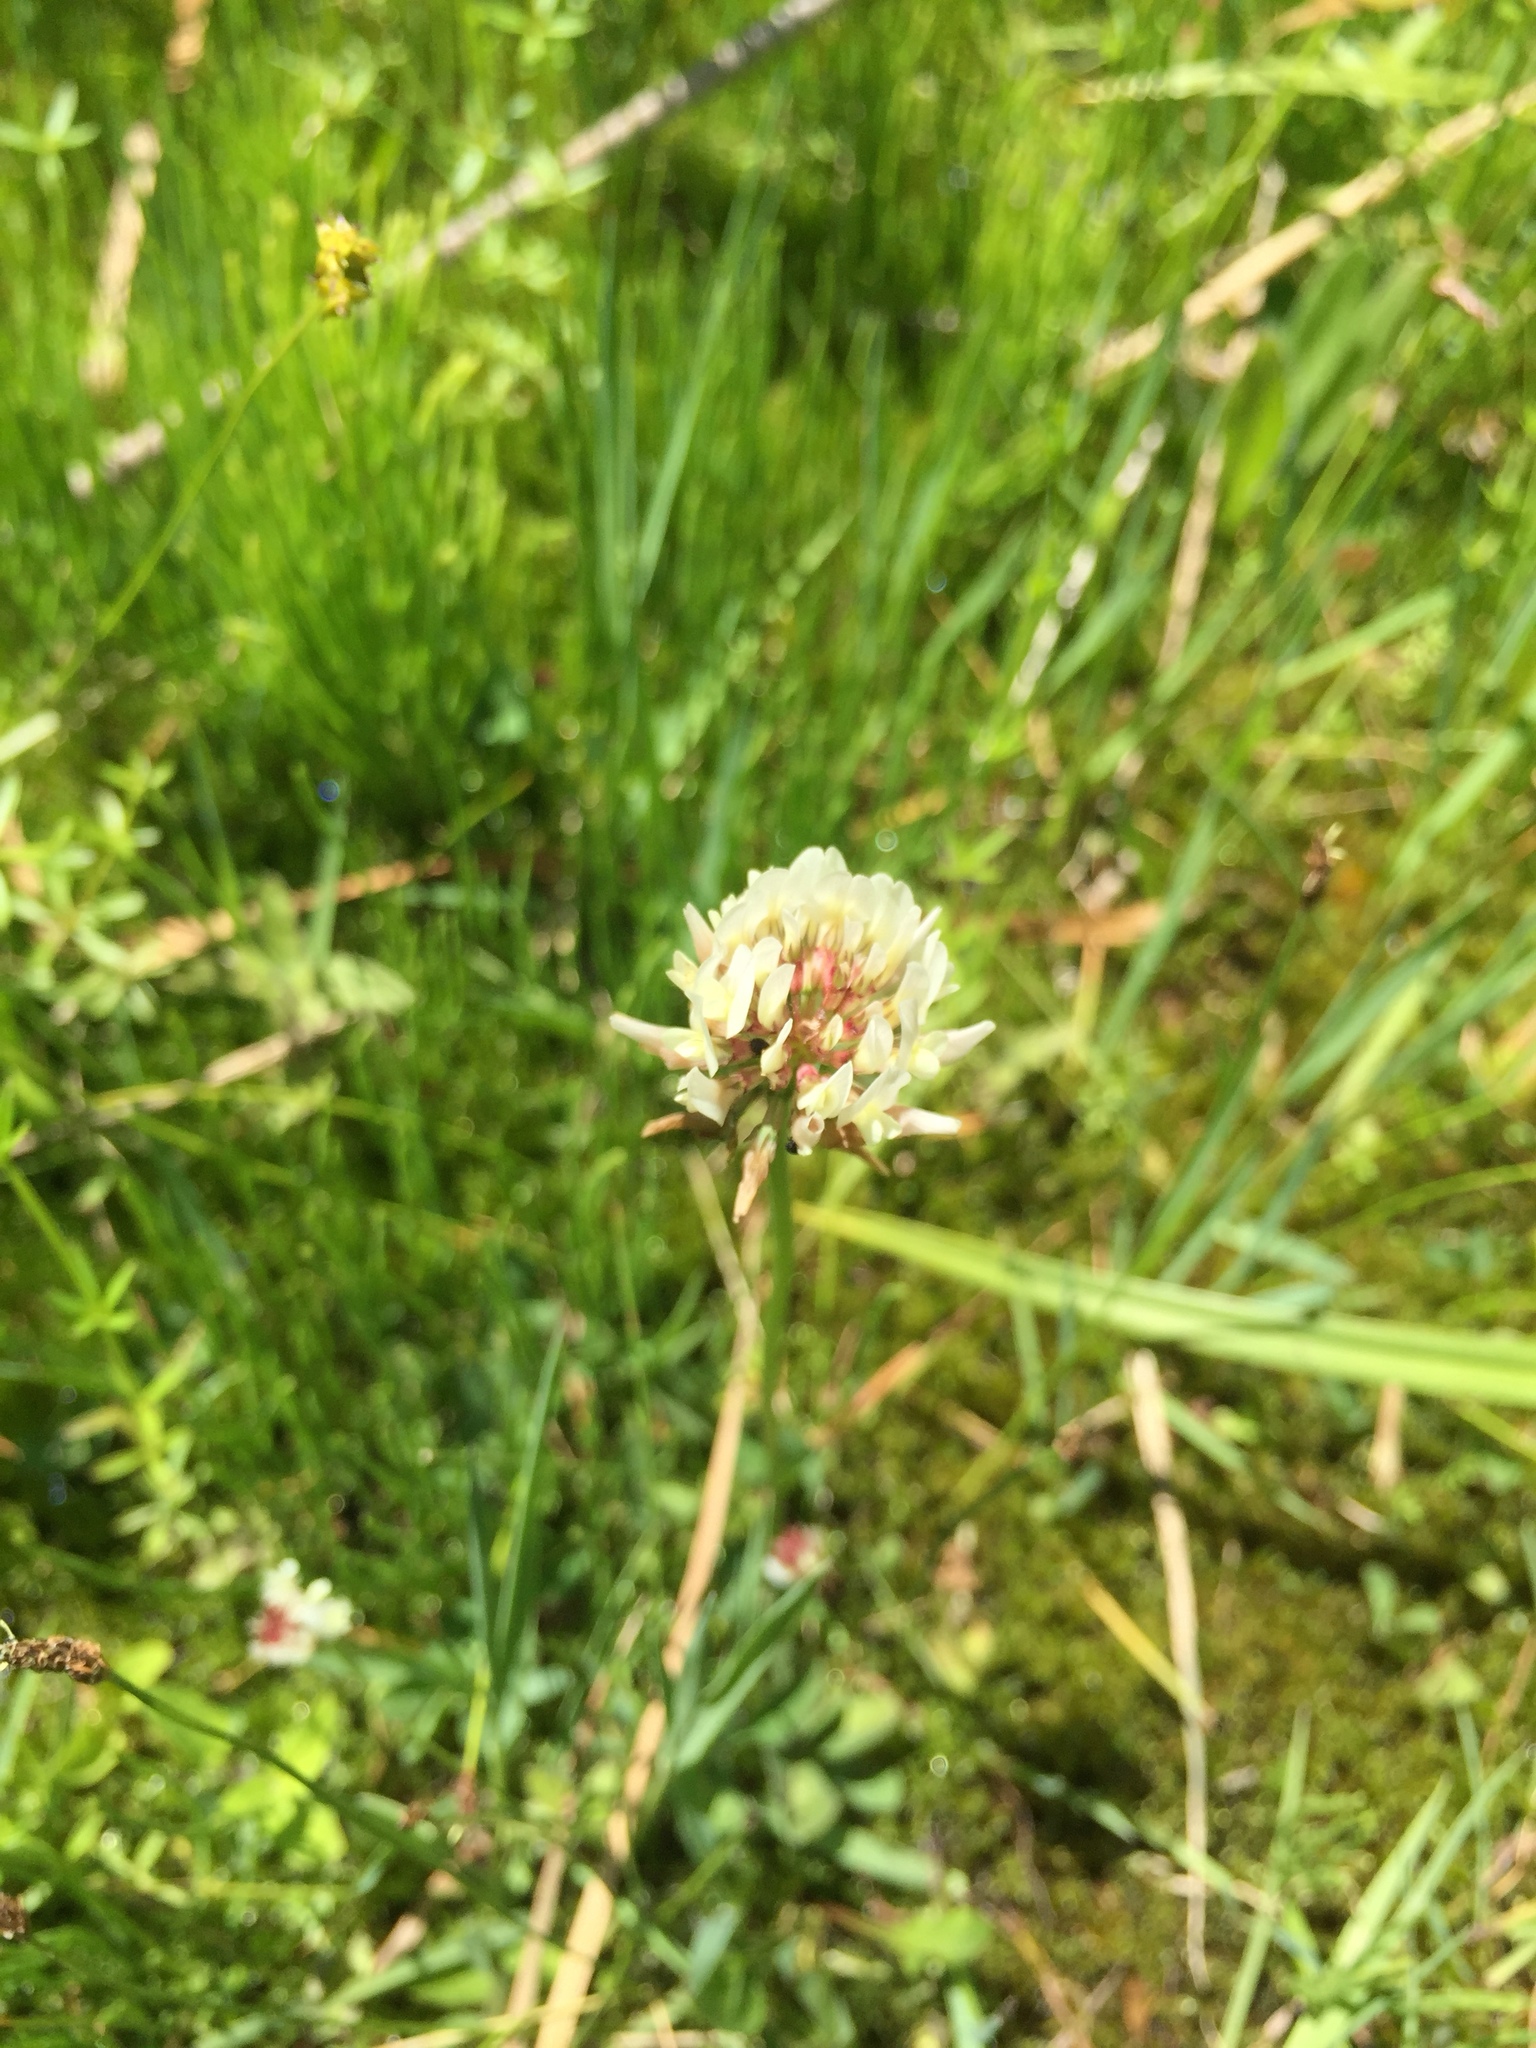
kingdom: Plantae
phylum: Tracheophyta
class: Magnoliopsida
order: Fabales
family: Fabaceae
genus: Trifolium
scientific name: Trifolium repens
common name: White clover
